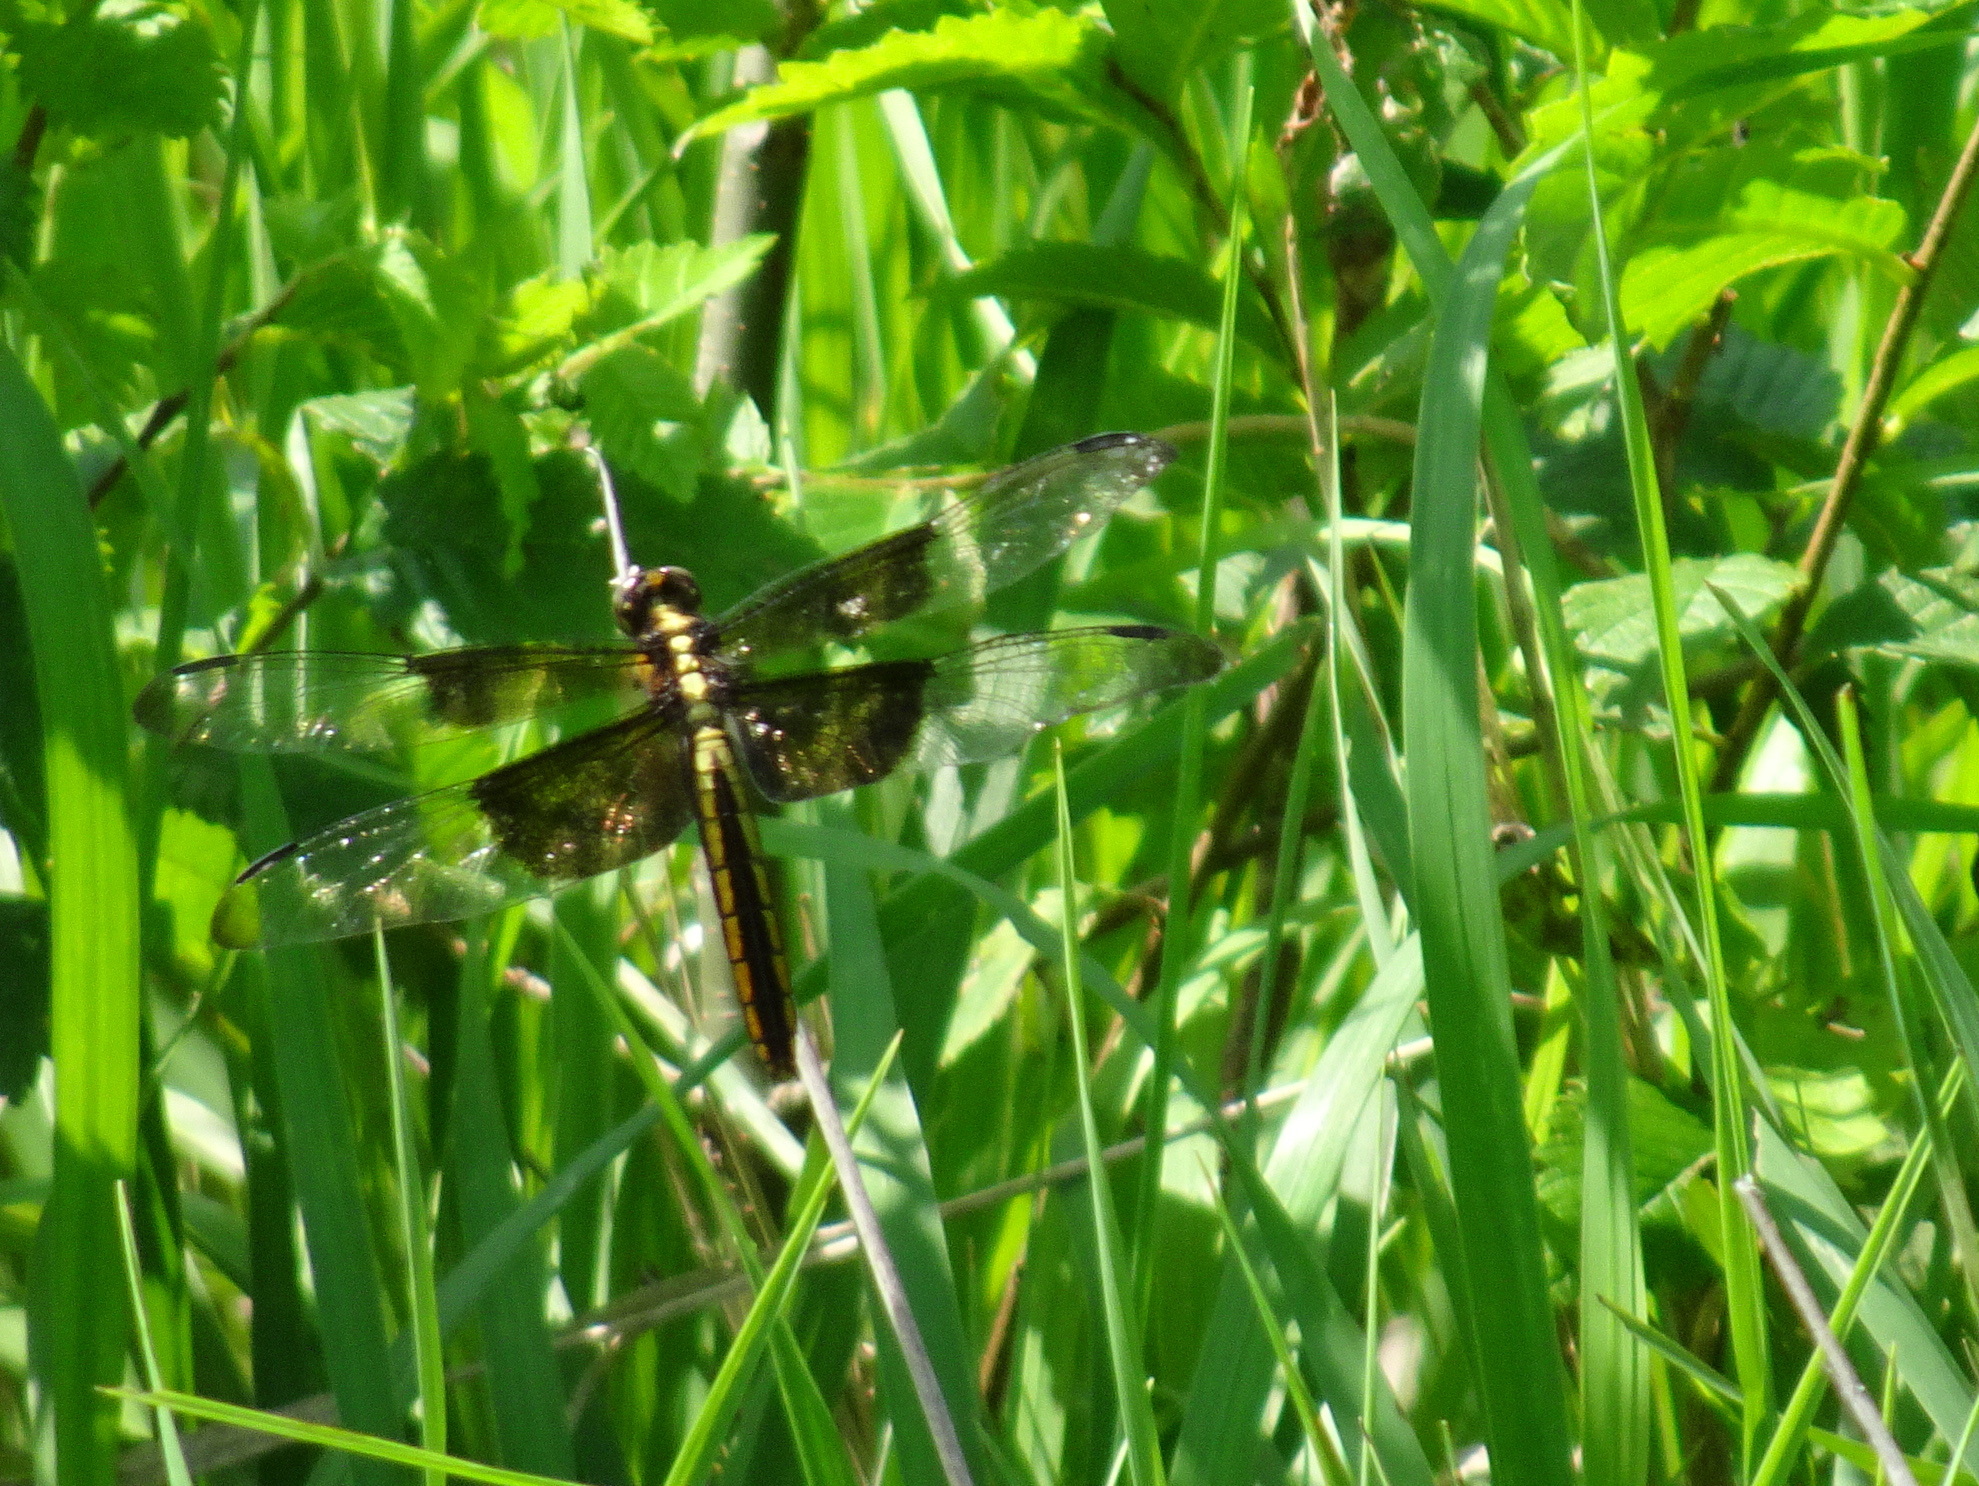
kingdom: Animalia
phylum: Arthropoda
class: Insecta
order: Odonata
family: Libellulidae
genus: Libellula
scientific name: Libellula luctuosa
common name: Widow skimmer
